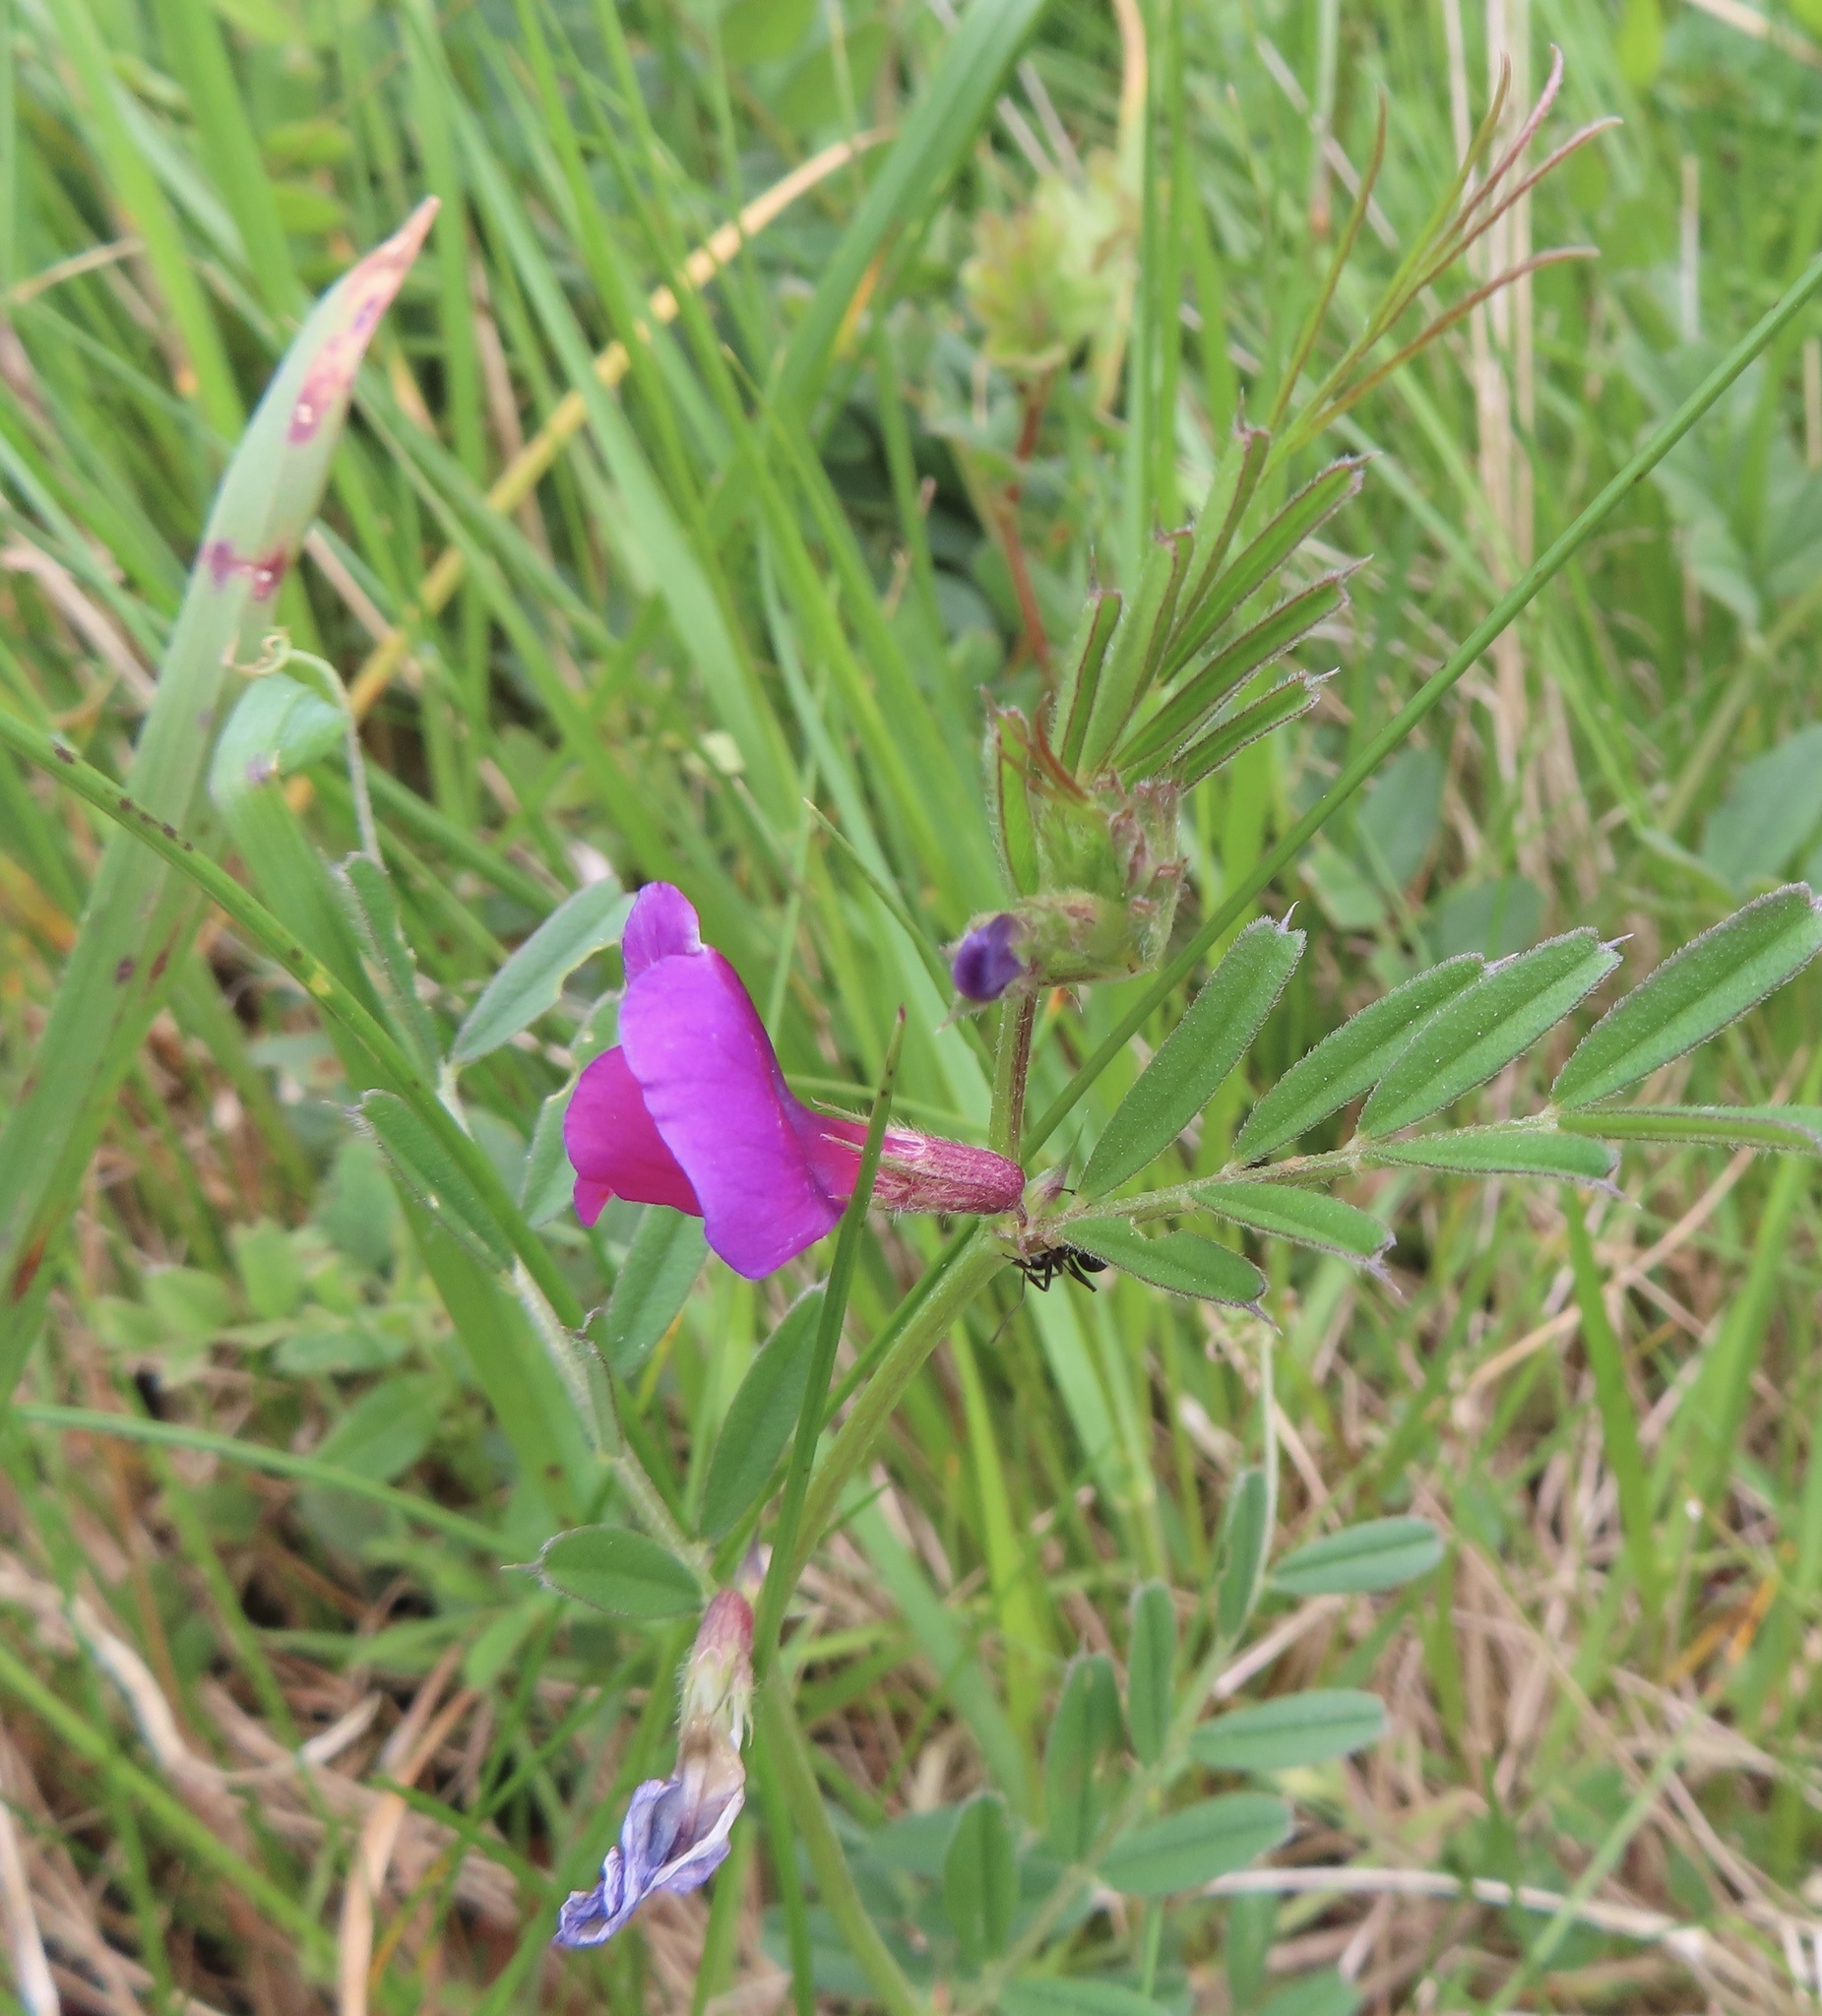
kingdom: Plantae
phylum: Tracheophyta
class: Magnoliopsida
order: Fabales
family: Fabaceae
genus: Vicia
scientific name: Vicia sativa
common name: Garden vetch
